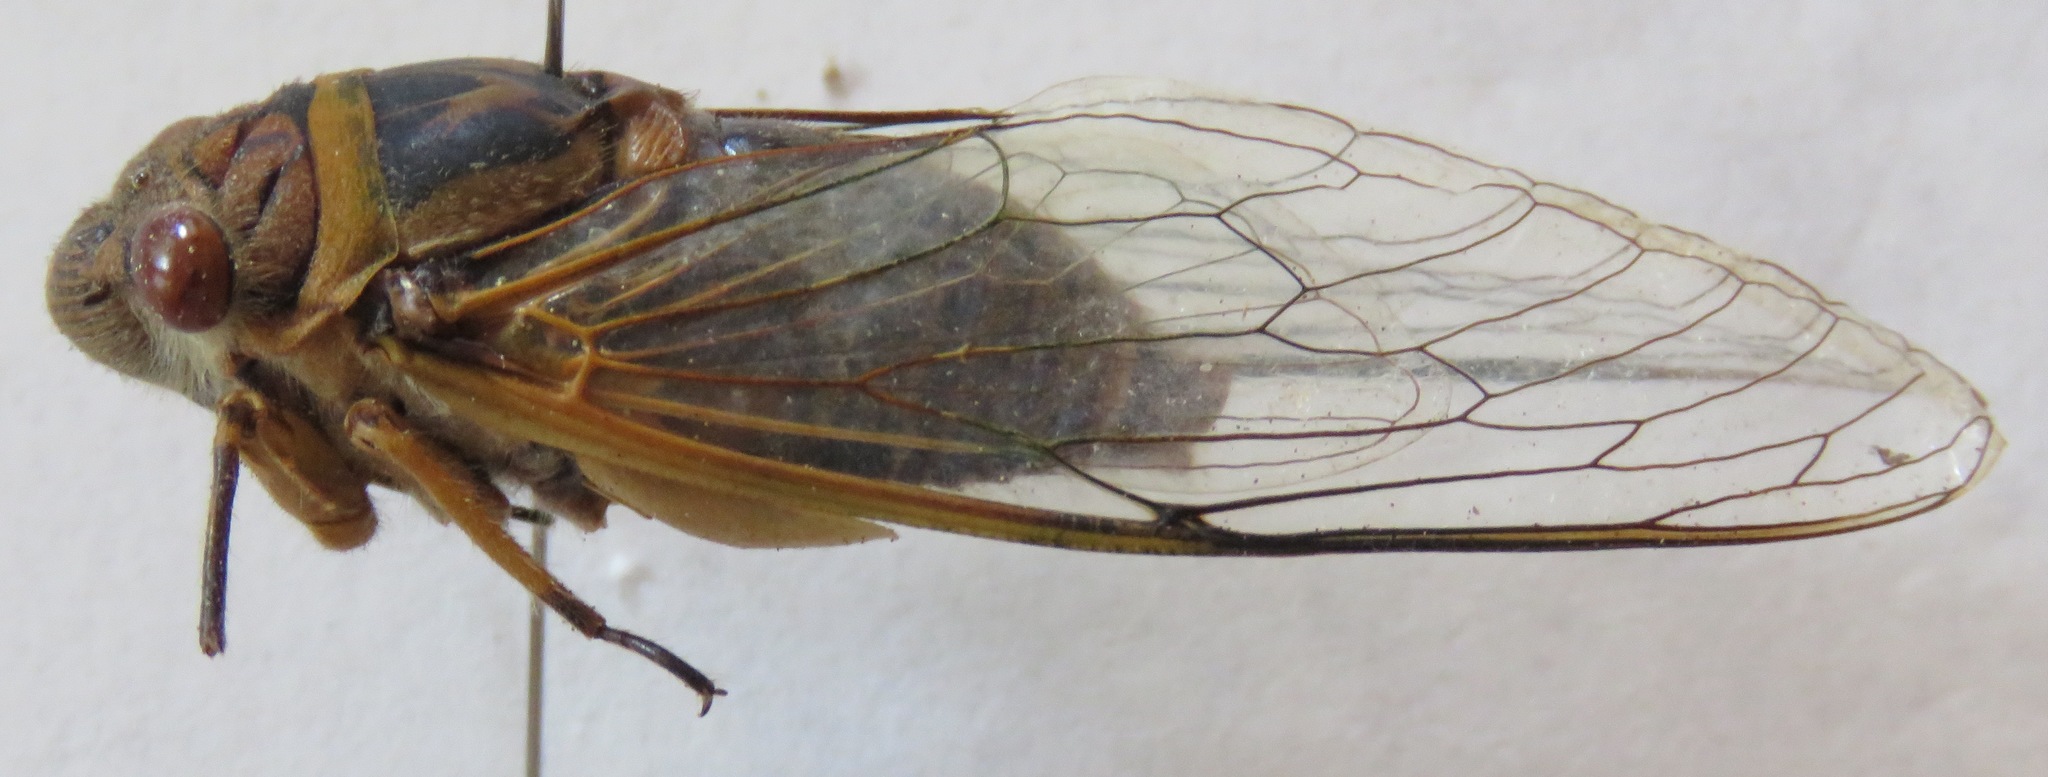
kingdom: Animalia
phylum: Arthropoda
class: Insecta
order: Hemiptera
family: Cicadidae
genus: Diceroprocta
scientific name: Diceroprocta ruatana
